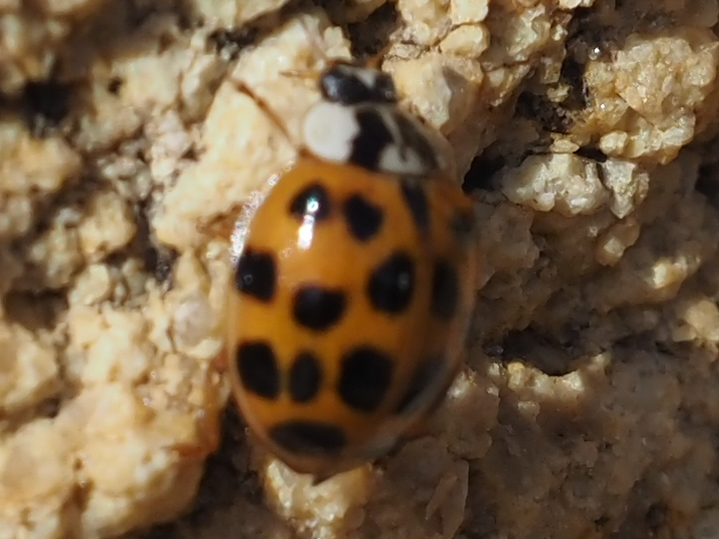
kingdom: Animalia
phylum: Arthropoda
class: Insecta
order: Coleoptera
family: Coccinellidae
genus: Harmonia
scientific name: Harmonia axyridis
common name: Harlequin ladybird
